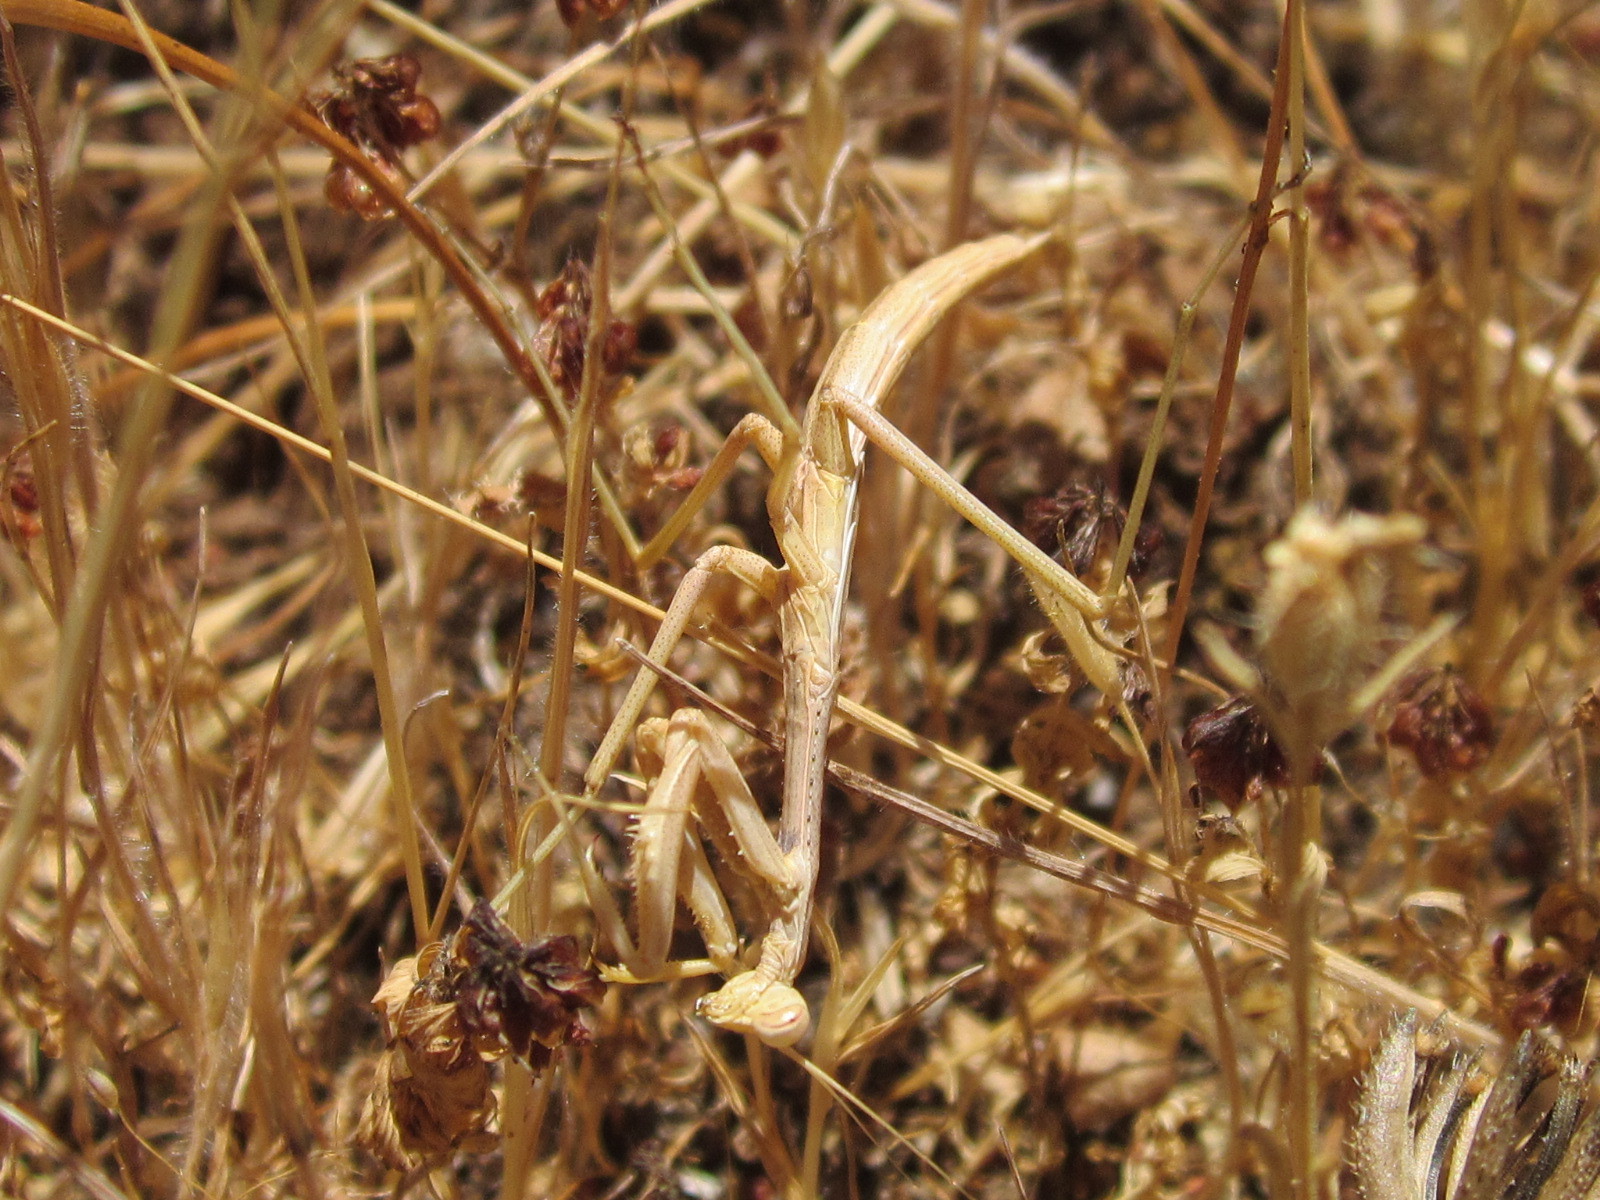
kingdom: Animalia
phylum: Arthropoda
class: Insecta
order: Mantodea
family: Coptopterygidae
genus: Coptopteryx
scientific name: Coptopteryx gayi
